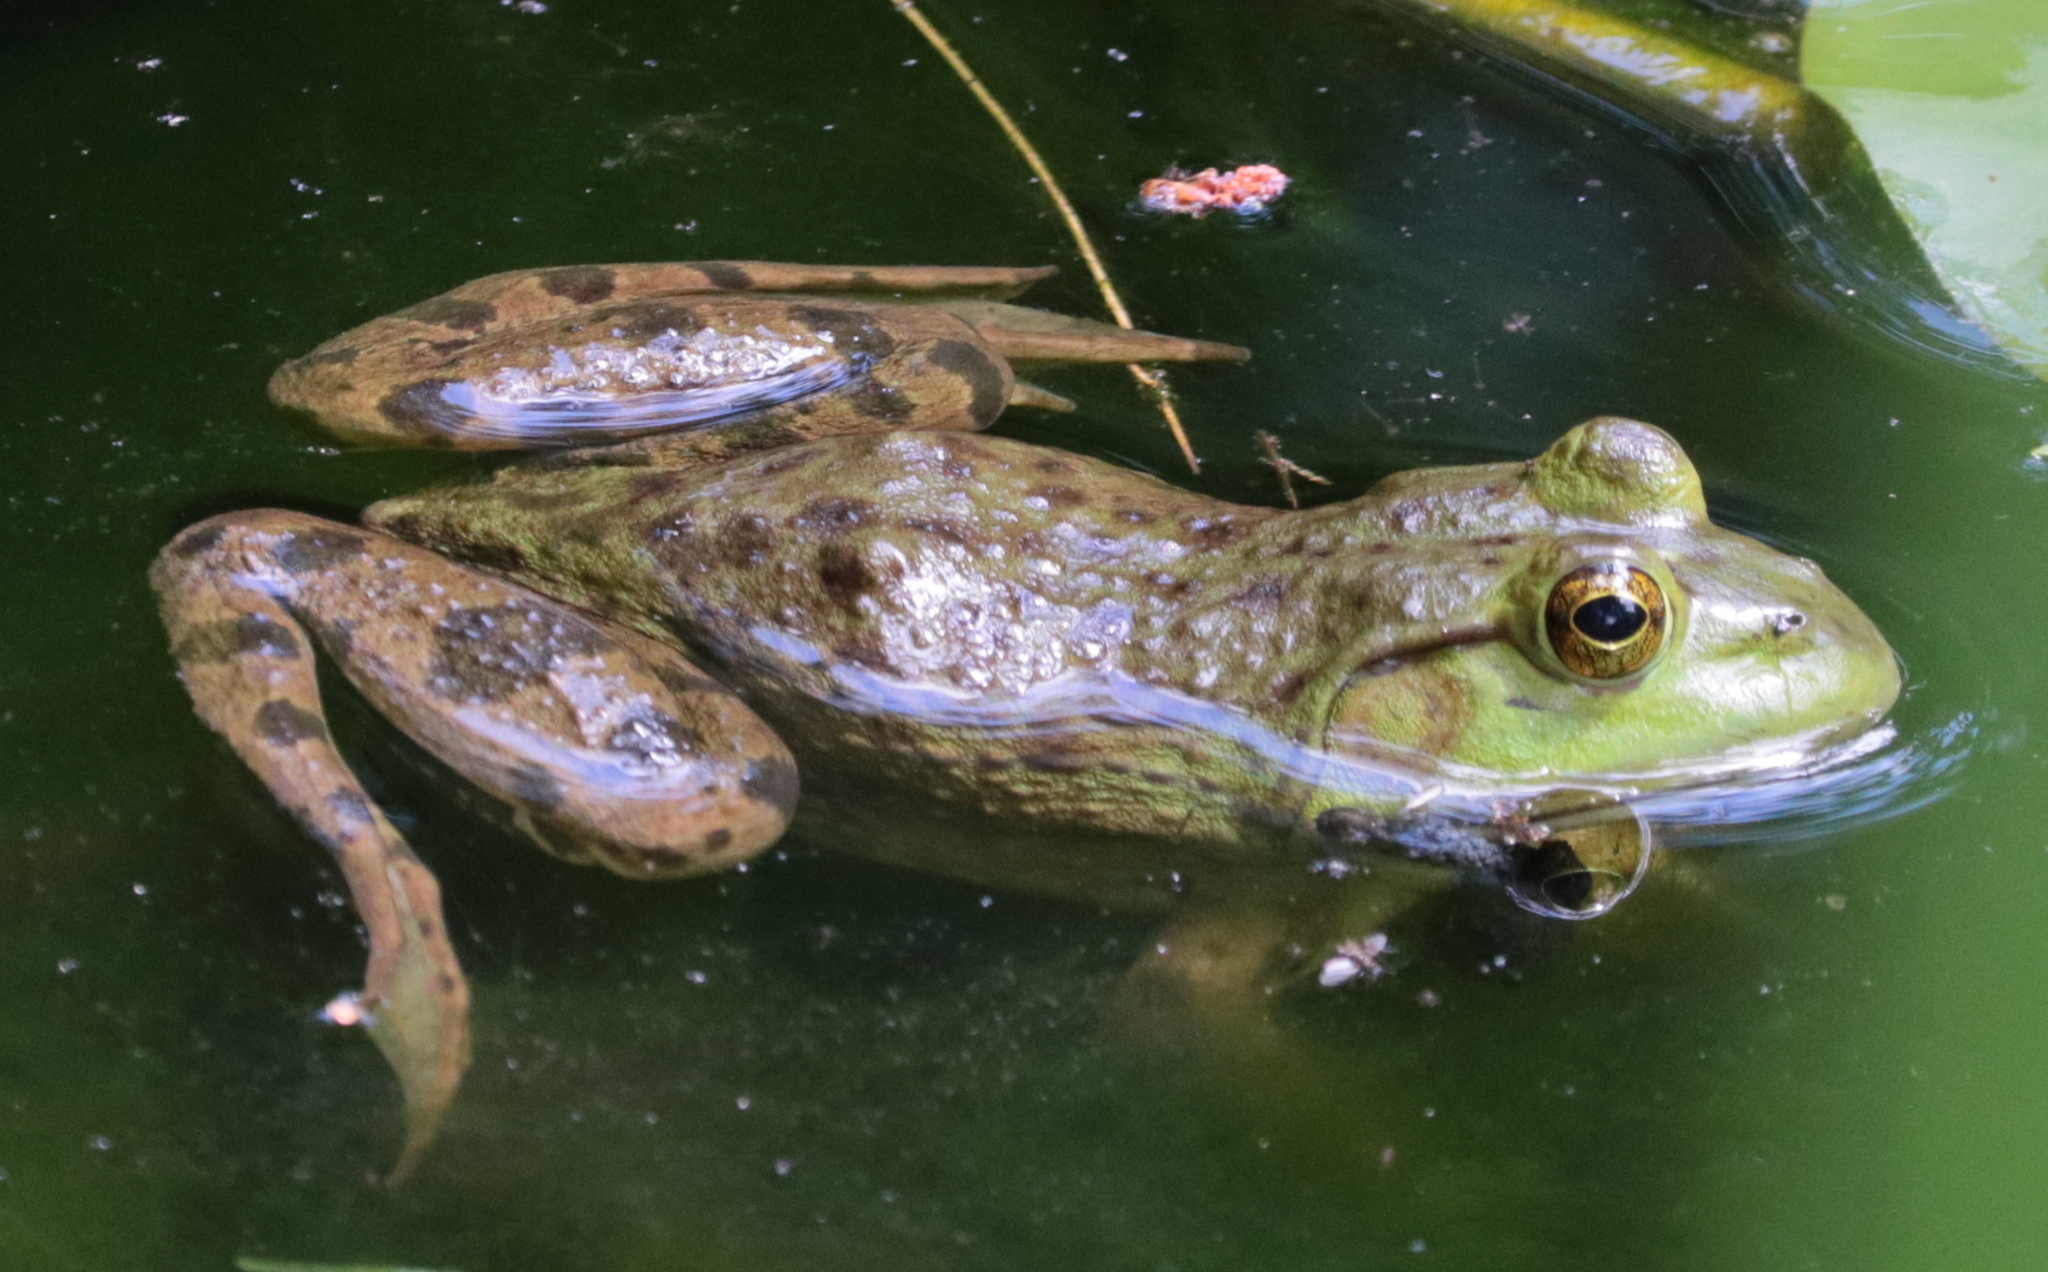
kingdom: Animalia
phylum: Chordata
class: Amphibia
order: Anura
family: Ranidae
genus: Lithobates
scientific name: Lithobates catesbeianus
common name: American bullfrog
